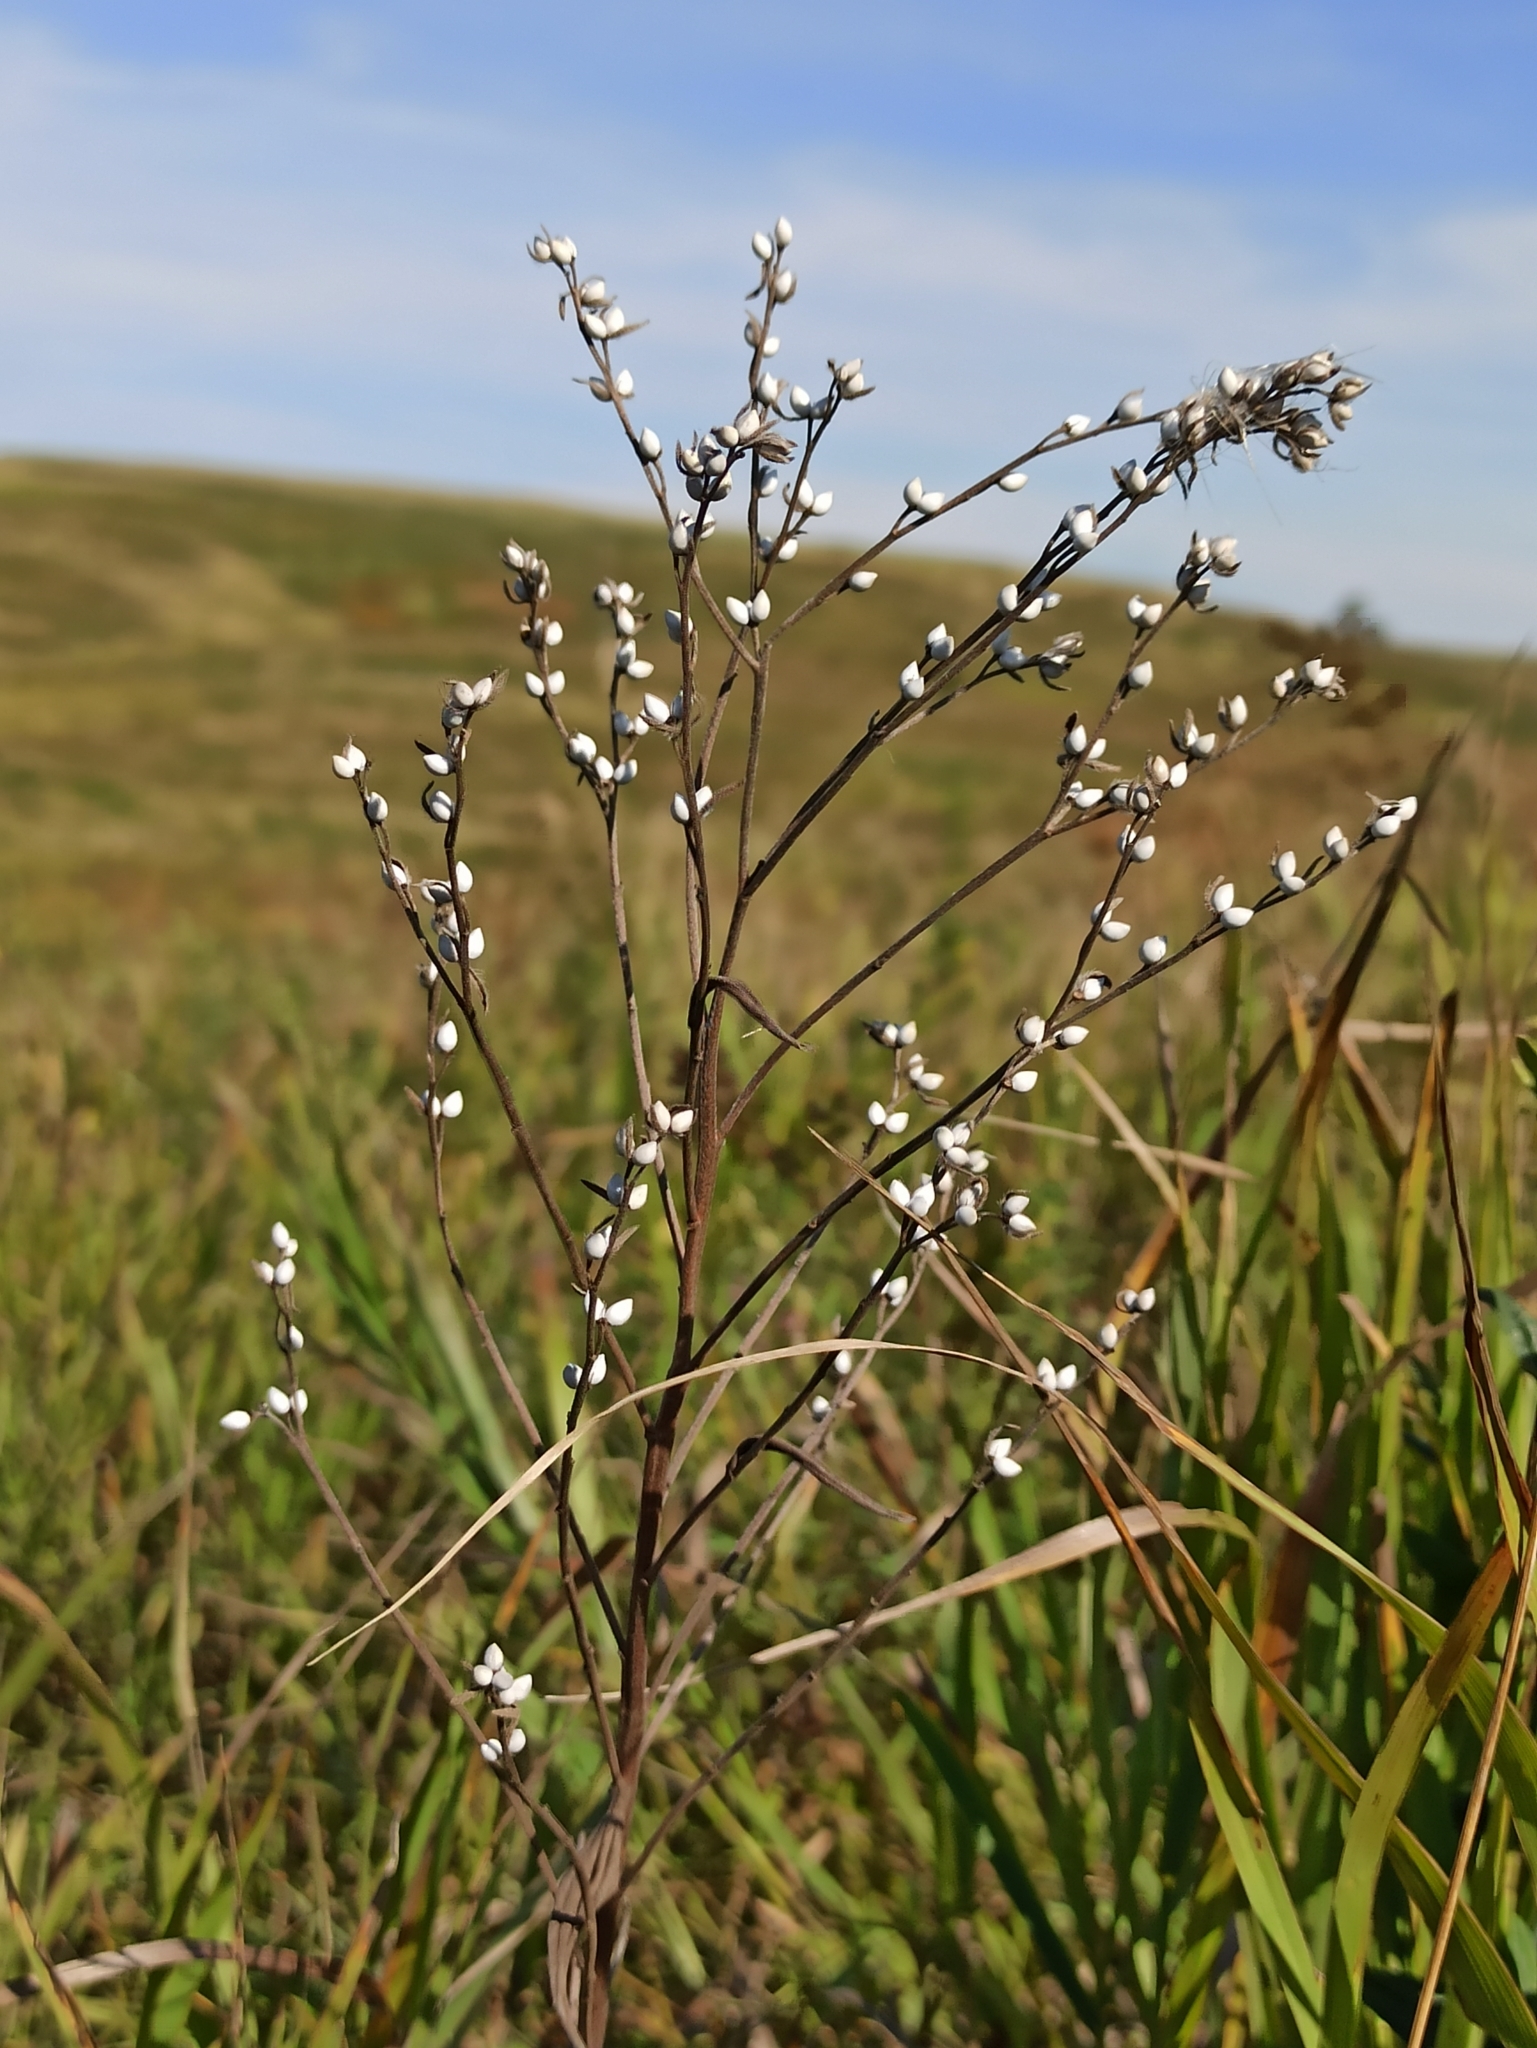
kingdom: Plantae
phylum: Tracheophyta
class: Magnoliopsida
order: Boraginales
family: Boraginaceae
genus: Lithospermum
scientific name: Lithospermum officinale
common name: Common gromwell
